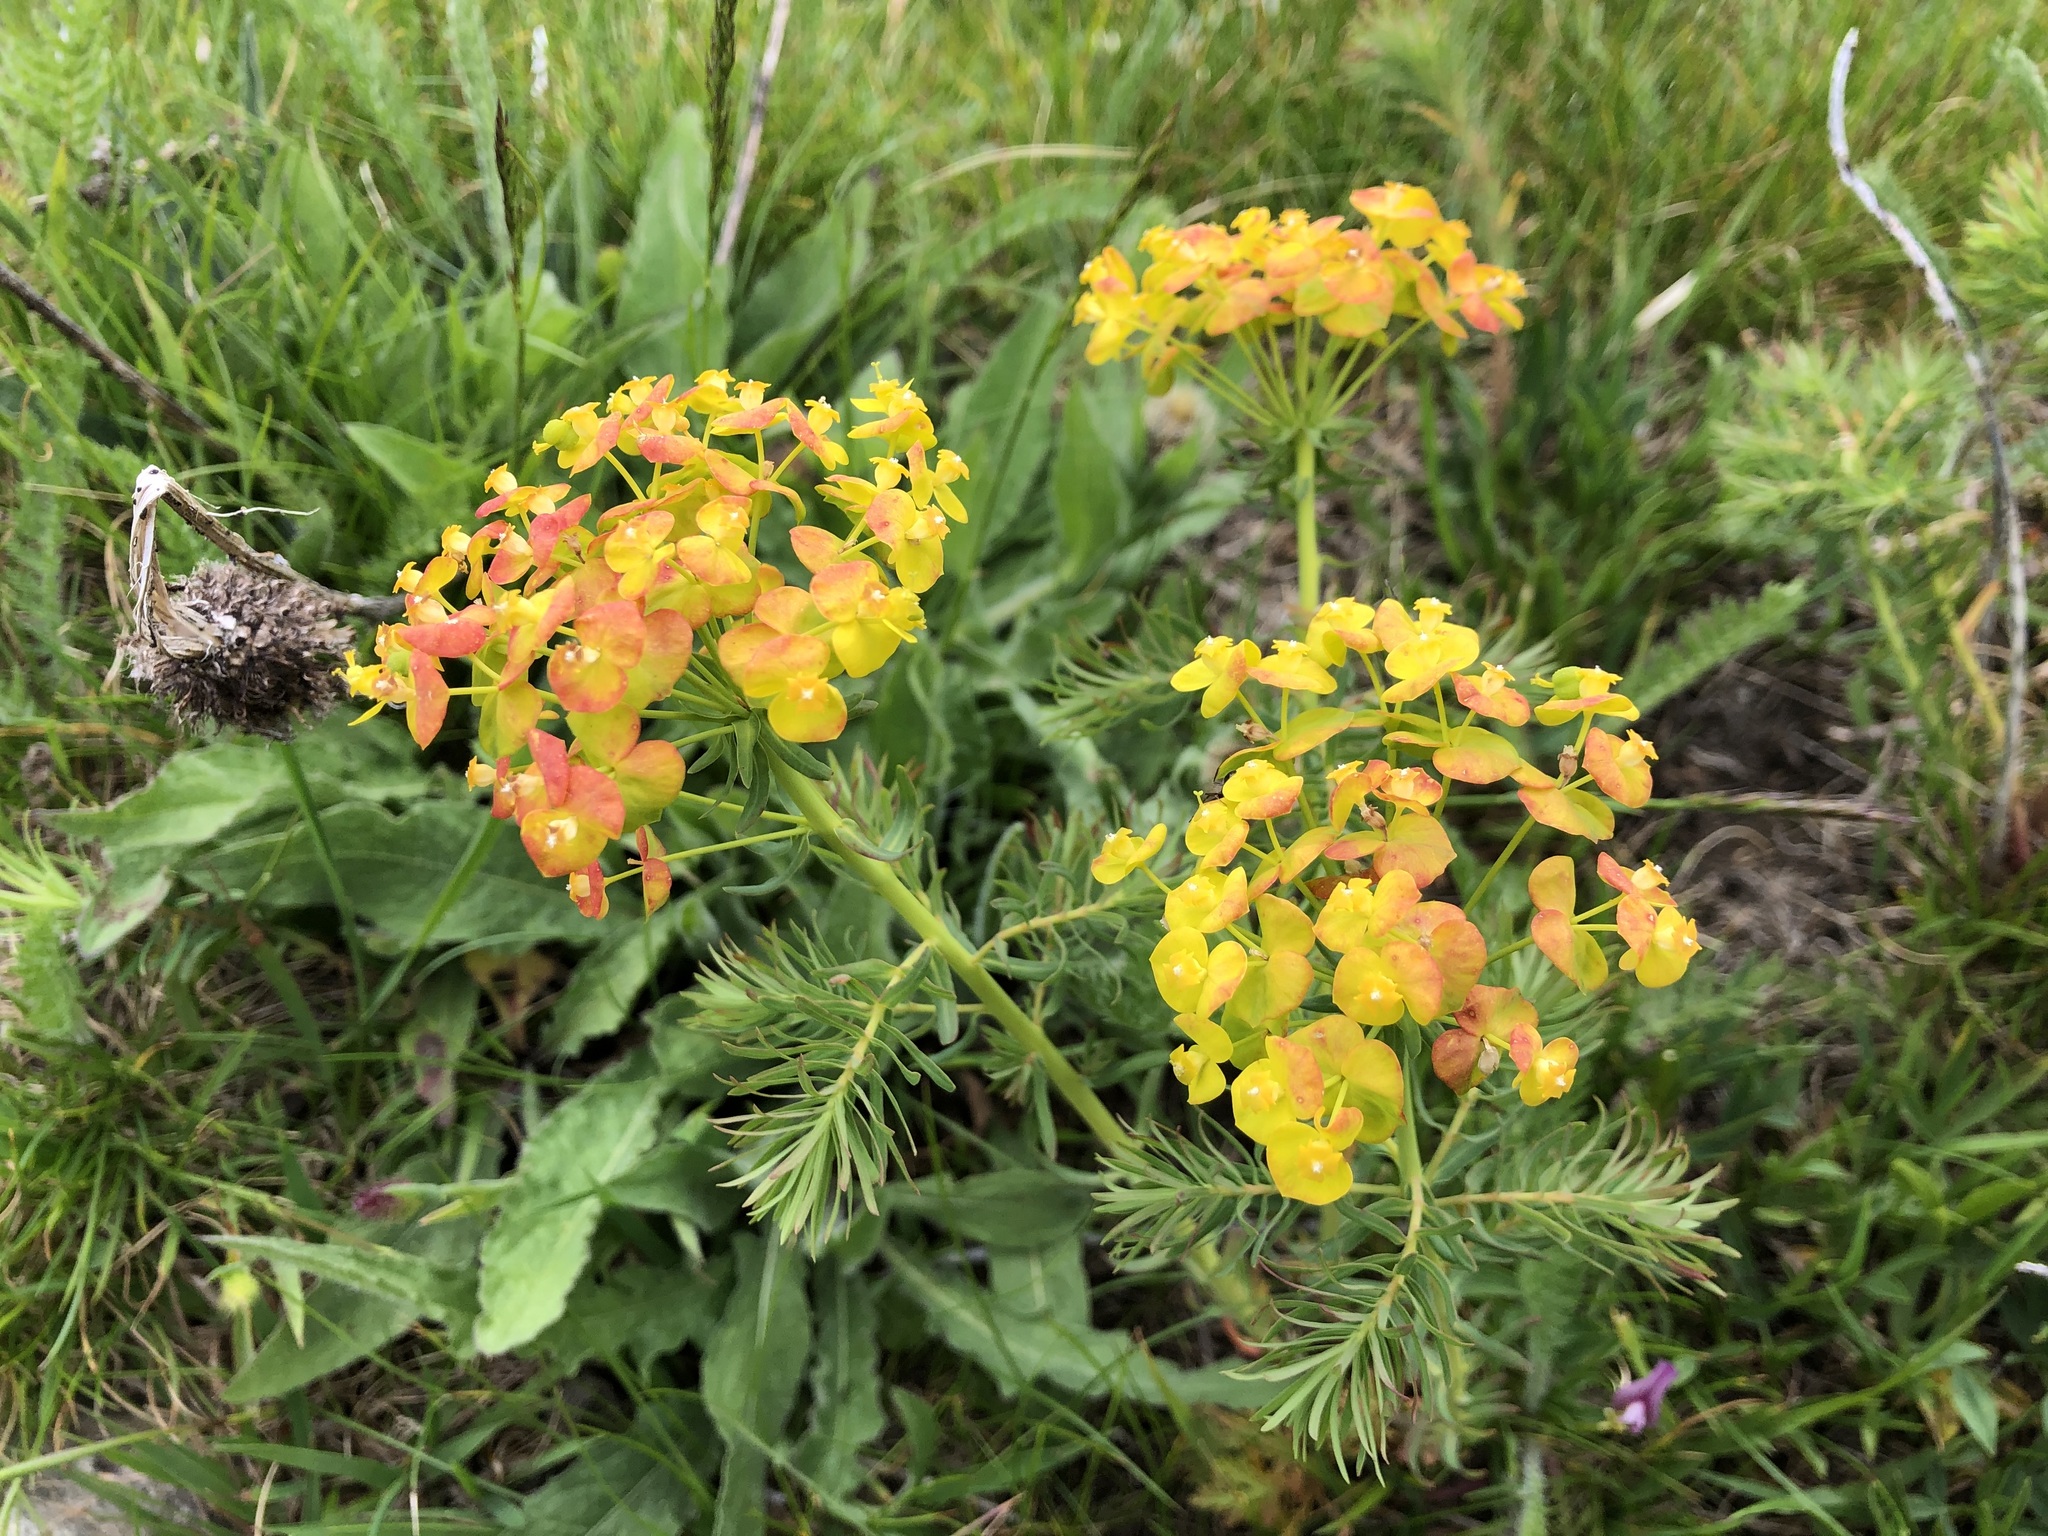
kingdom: Plantae
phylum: Tracheophyta
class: Magnoliopsida
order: Malpighiales
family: Euphorbiaceae
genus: Euphorbia
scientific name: Euphorbia cyparissias
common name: Cypress spurge
